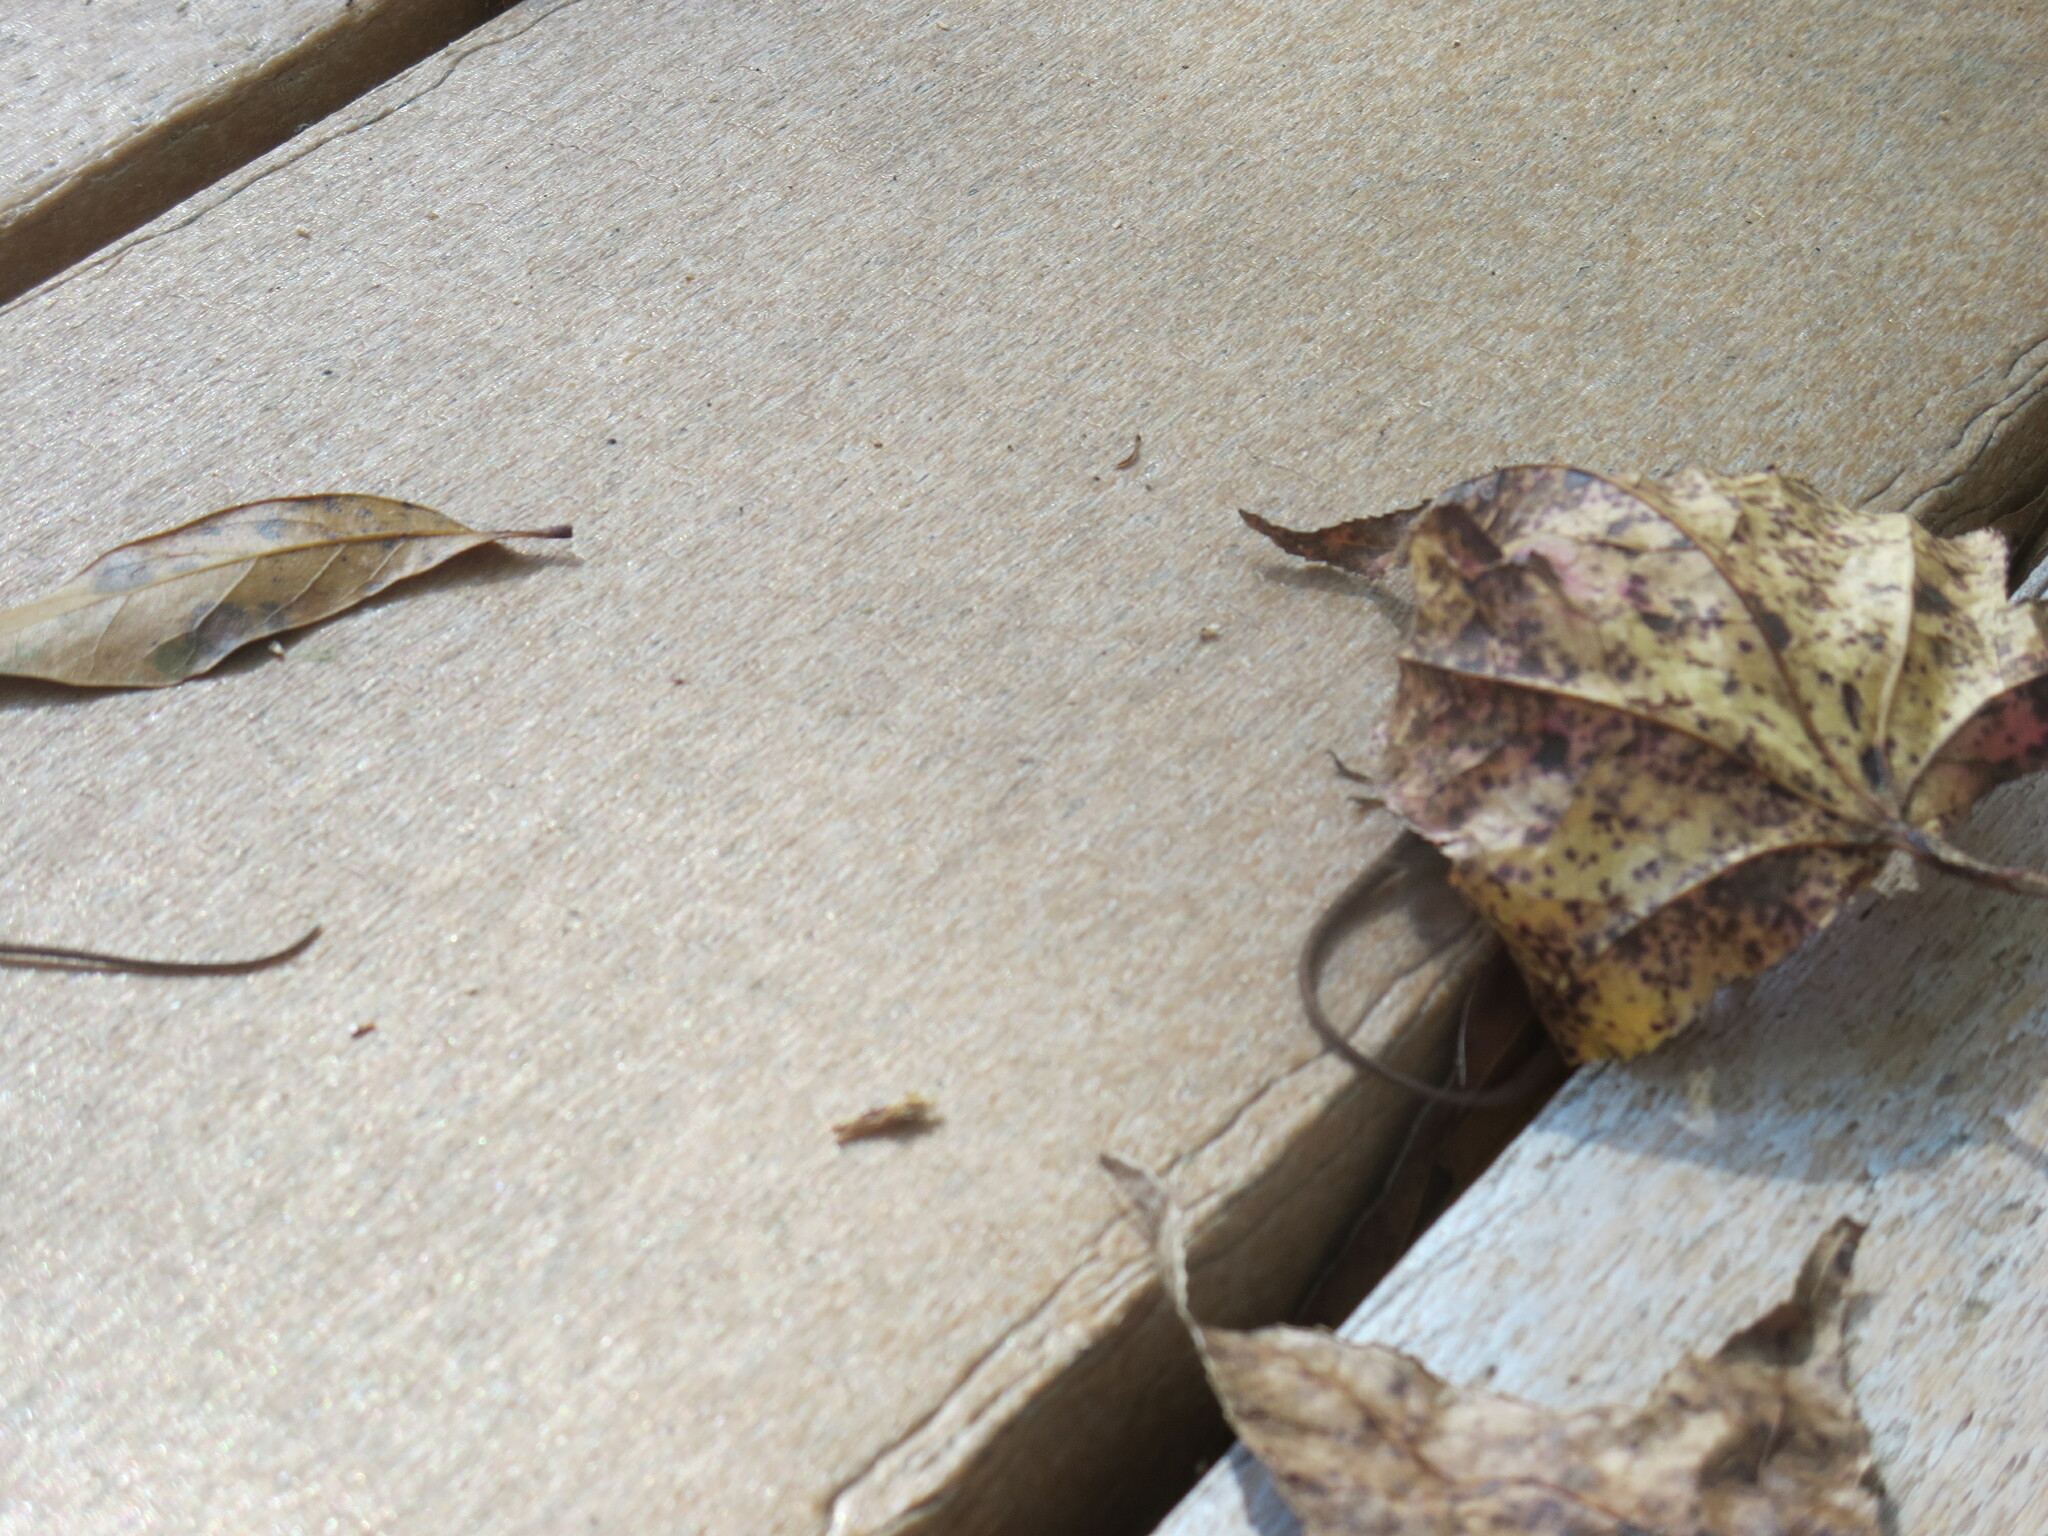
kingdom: Animalia
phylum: Chordata
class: Squamata
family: Dactyloidae
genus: Anolis
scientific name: Anolis carolinensis
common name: Green anole
